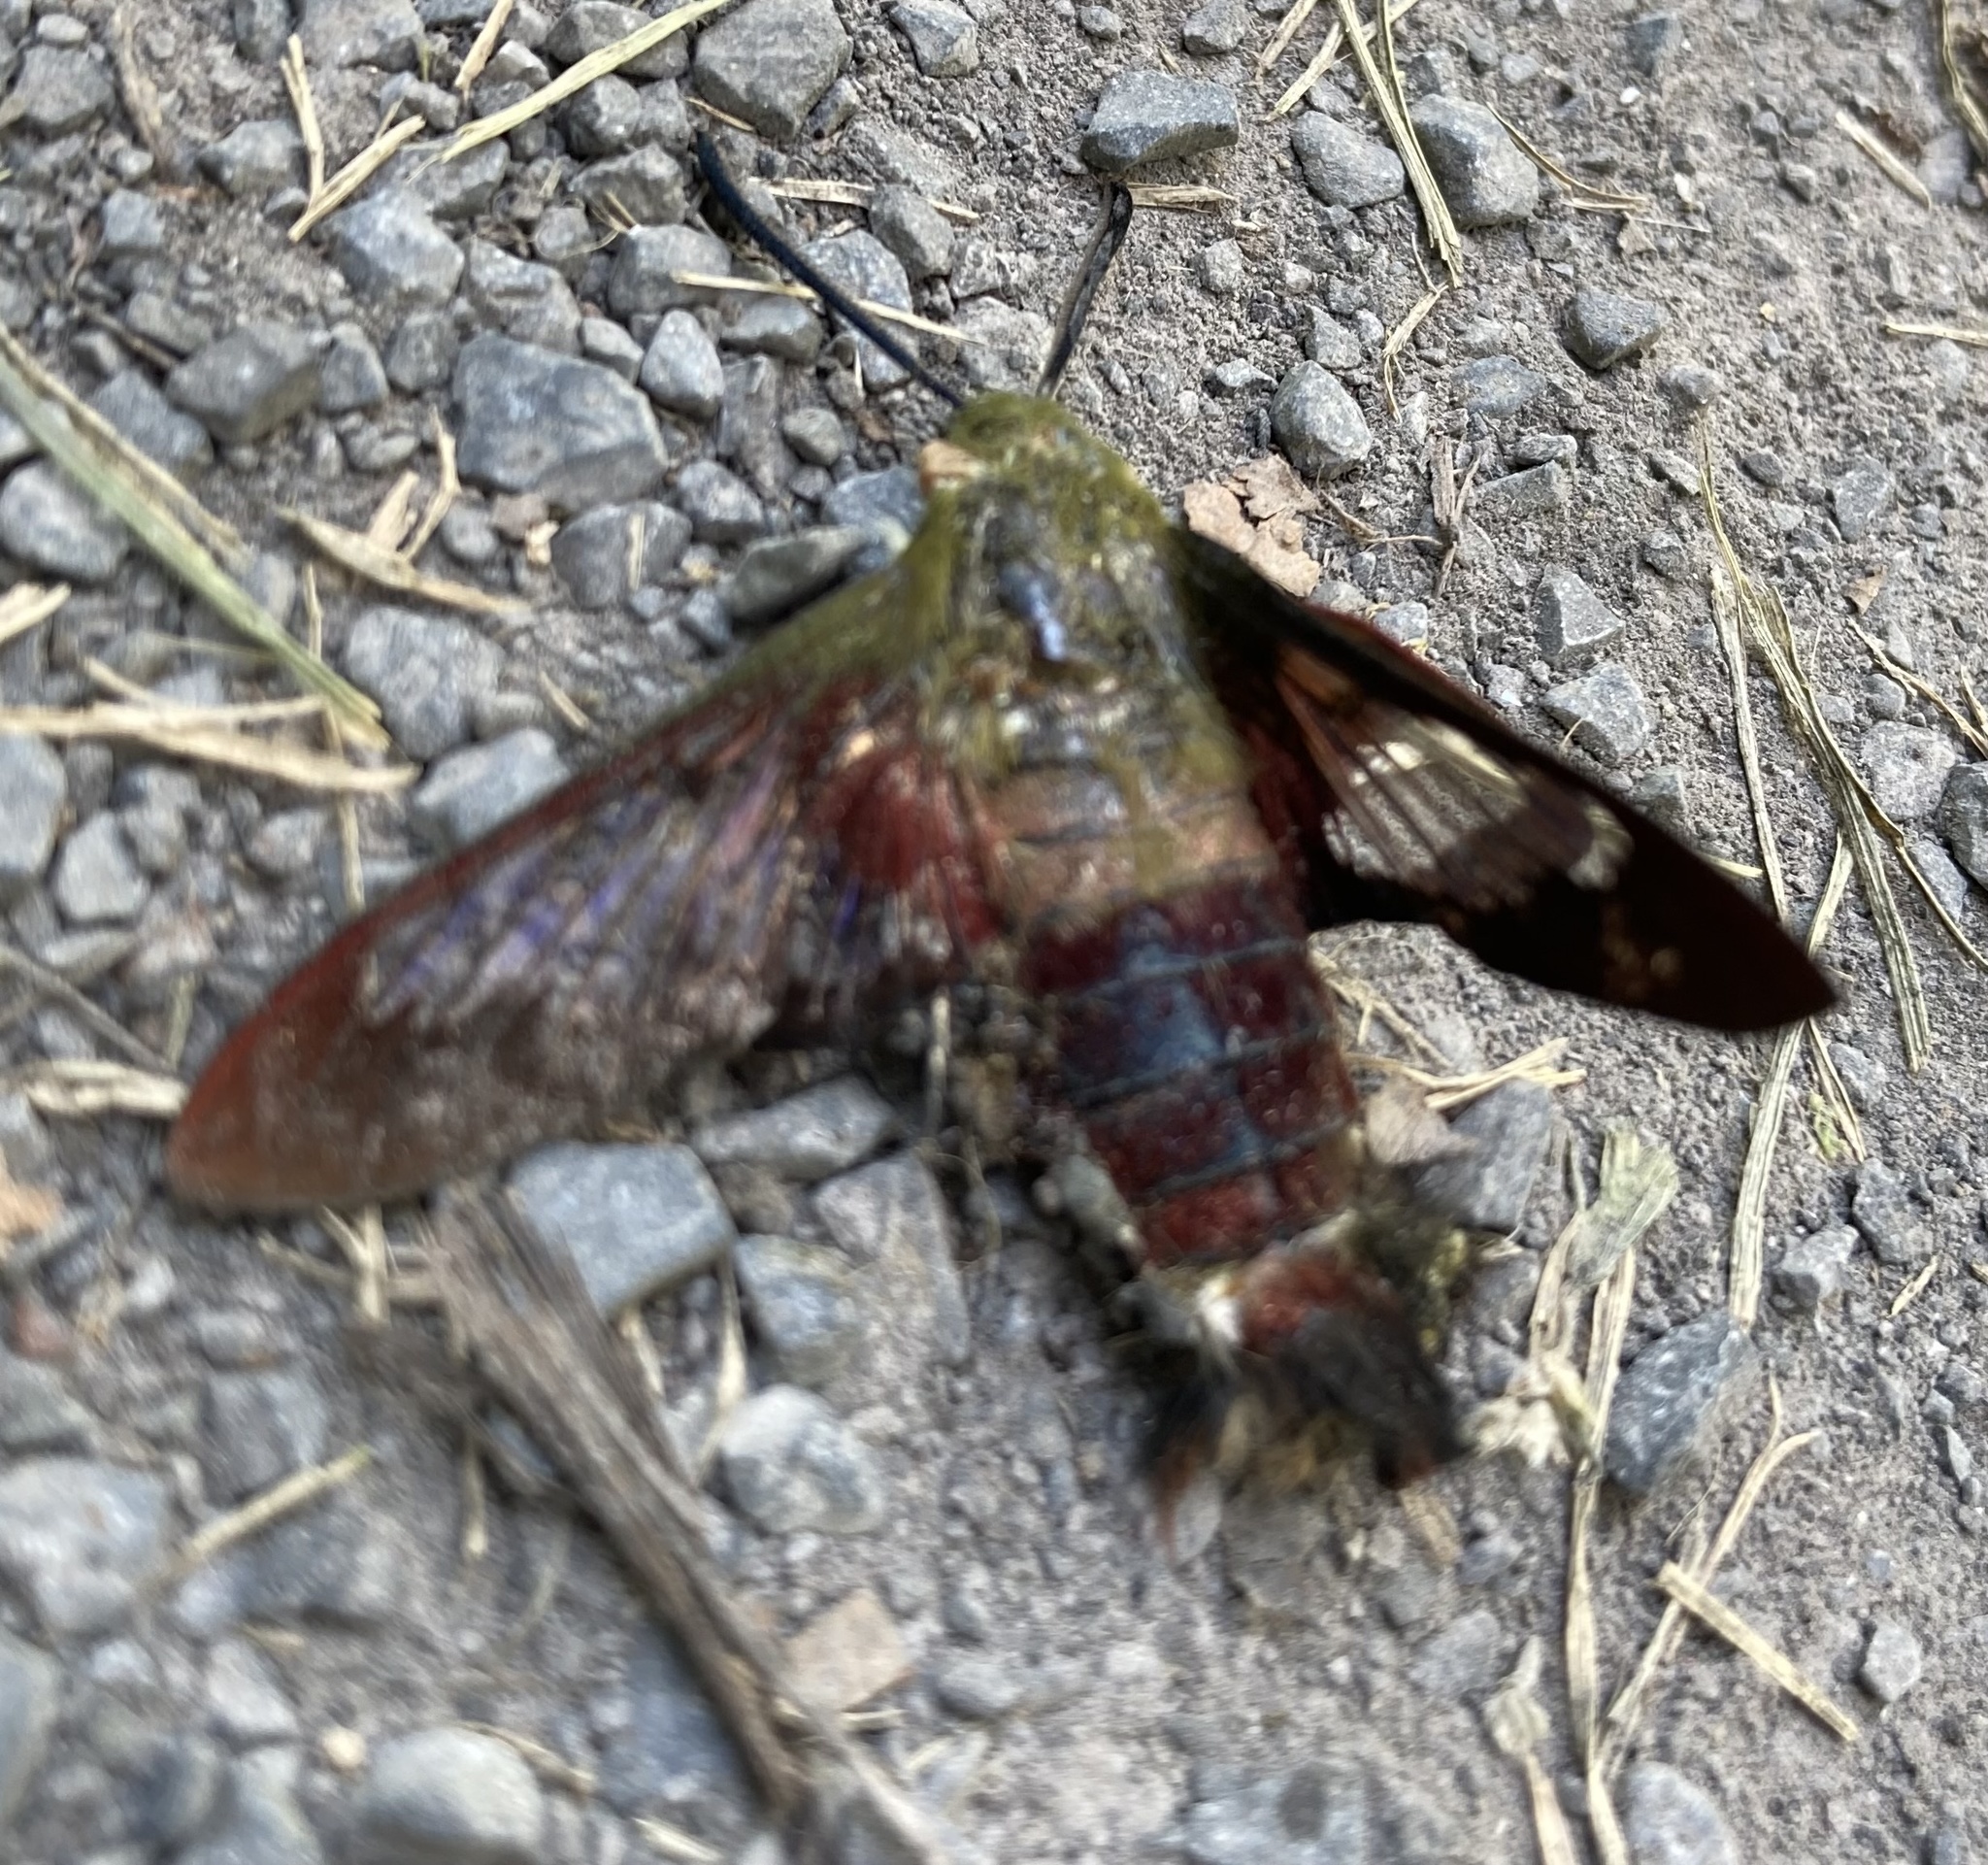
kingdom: Animalia
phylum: Arthropoda
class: Insecta
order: Lepidoptera
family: Sphingidae
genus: Hemaris
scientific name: Hemaris thysbe
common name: Common clear-wing
